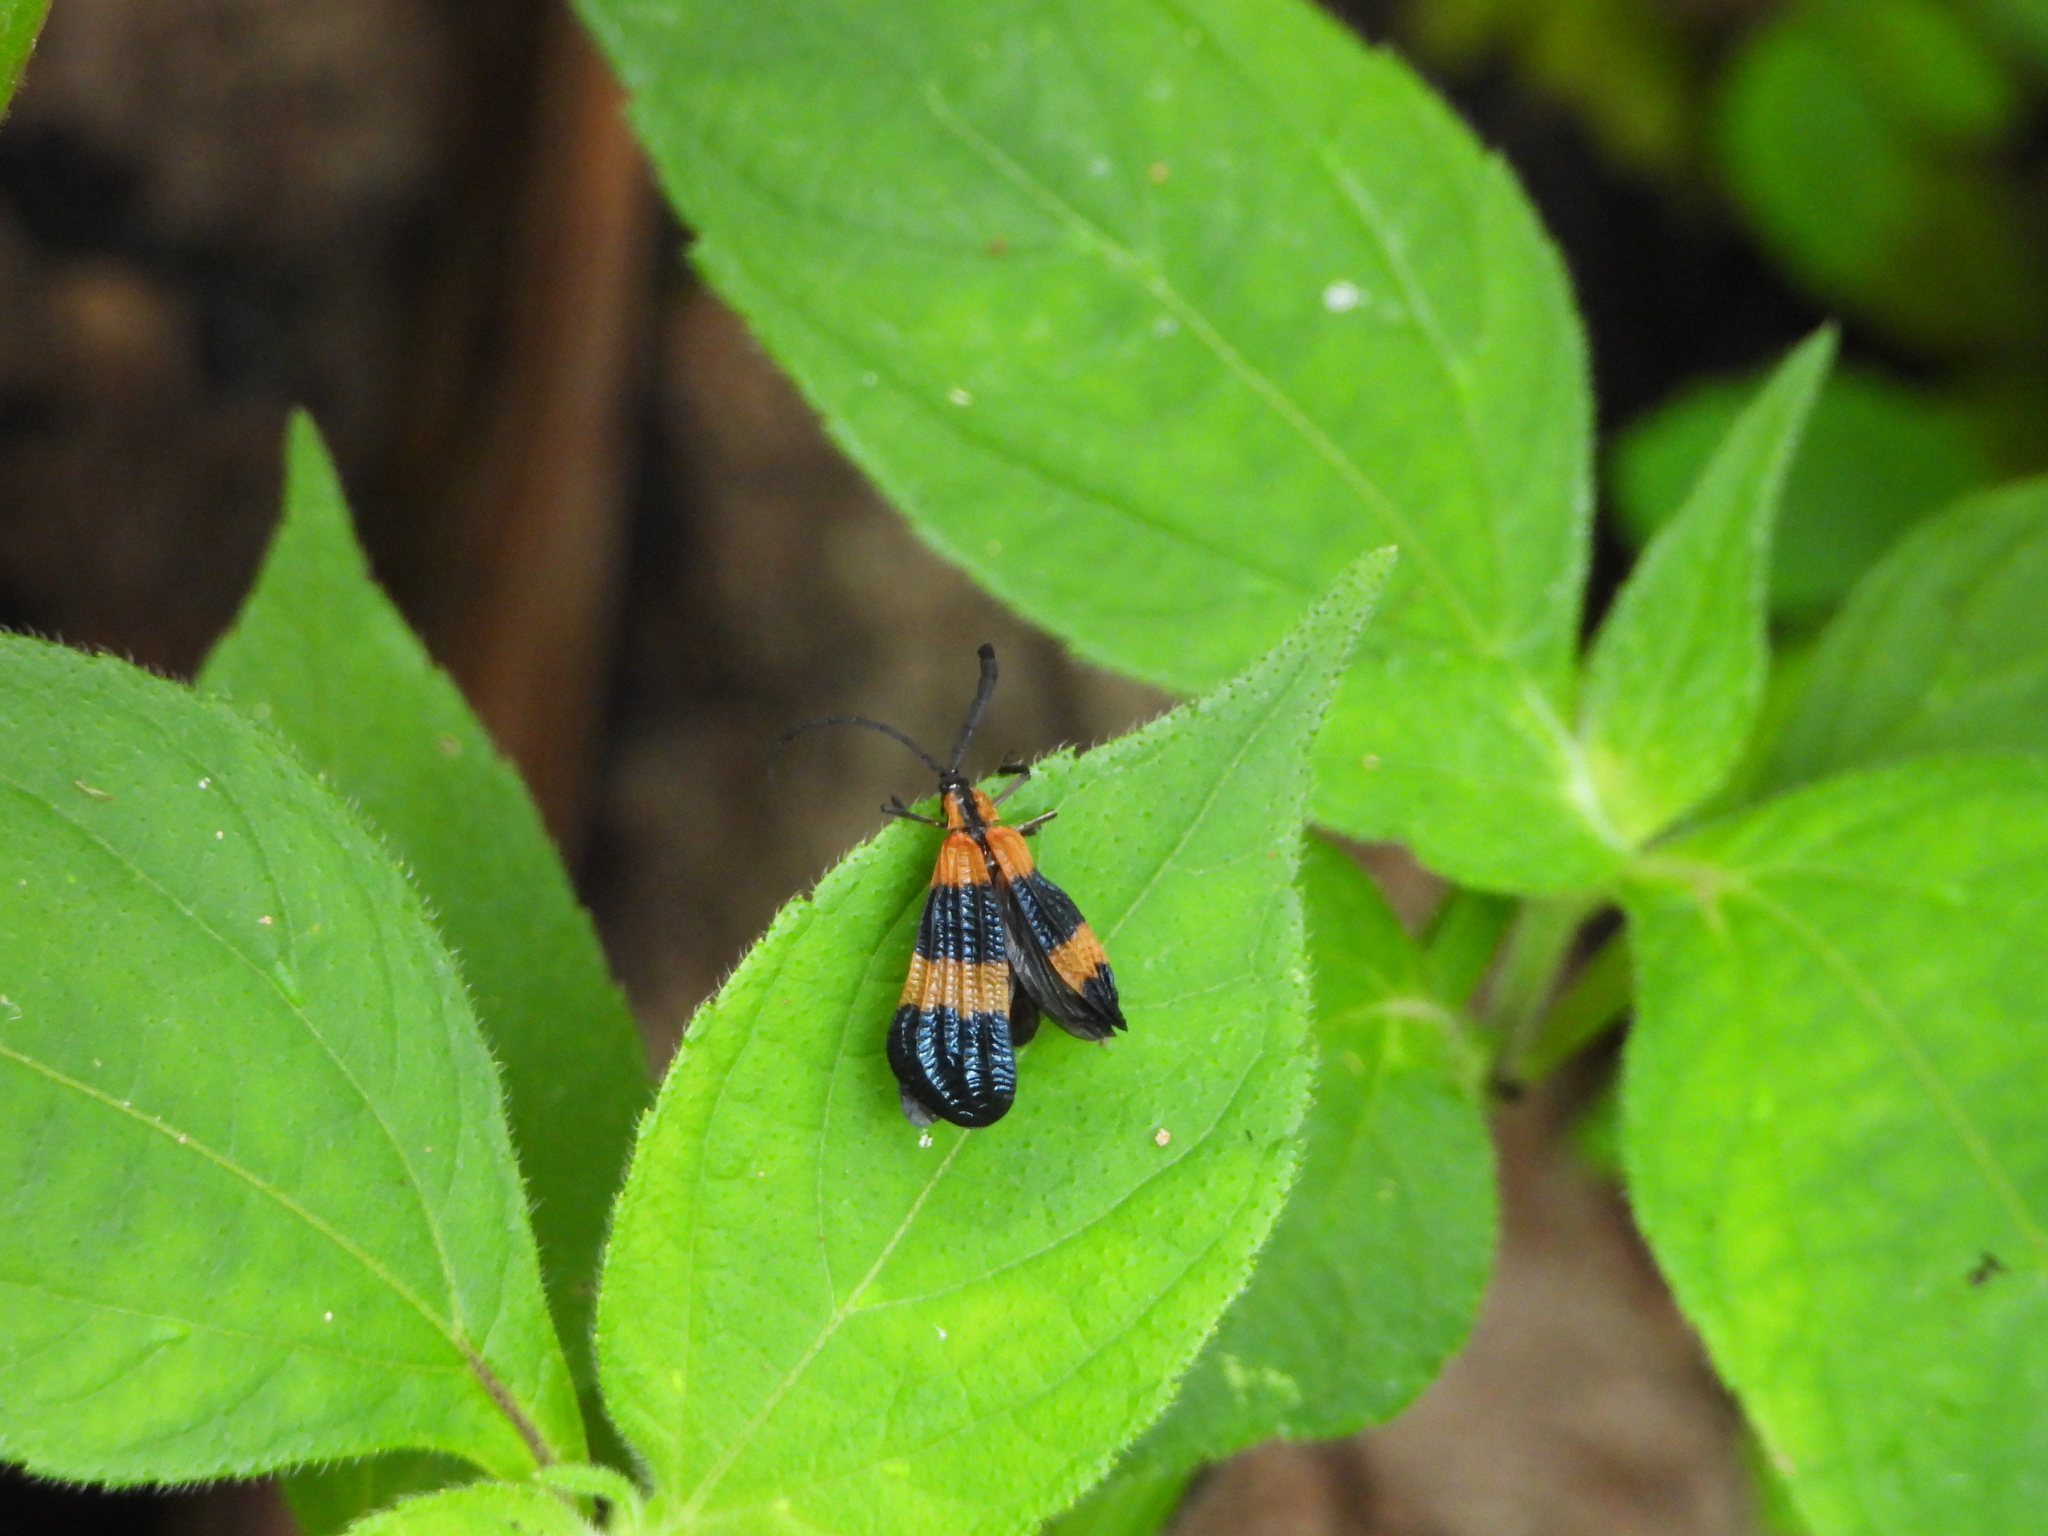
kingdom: Animalia
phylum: Arthropoda
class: Insecta
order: Coleoptera
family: Lycidae
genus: Calopteron
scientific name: Calopteron
